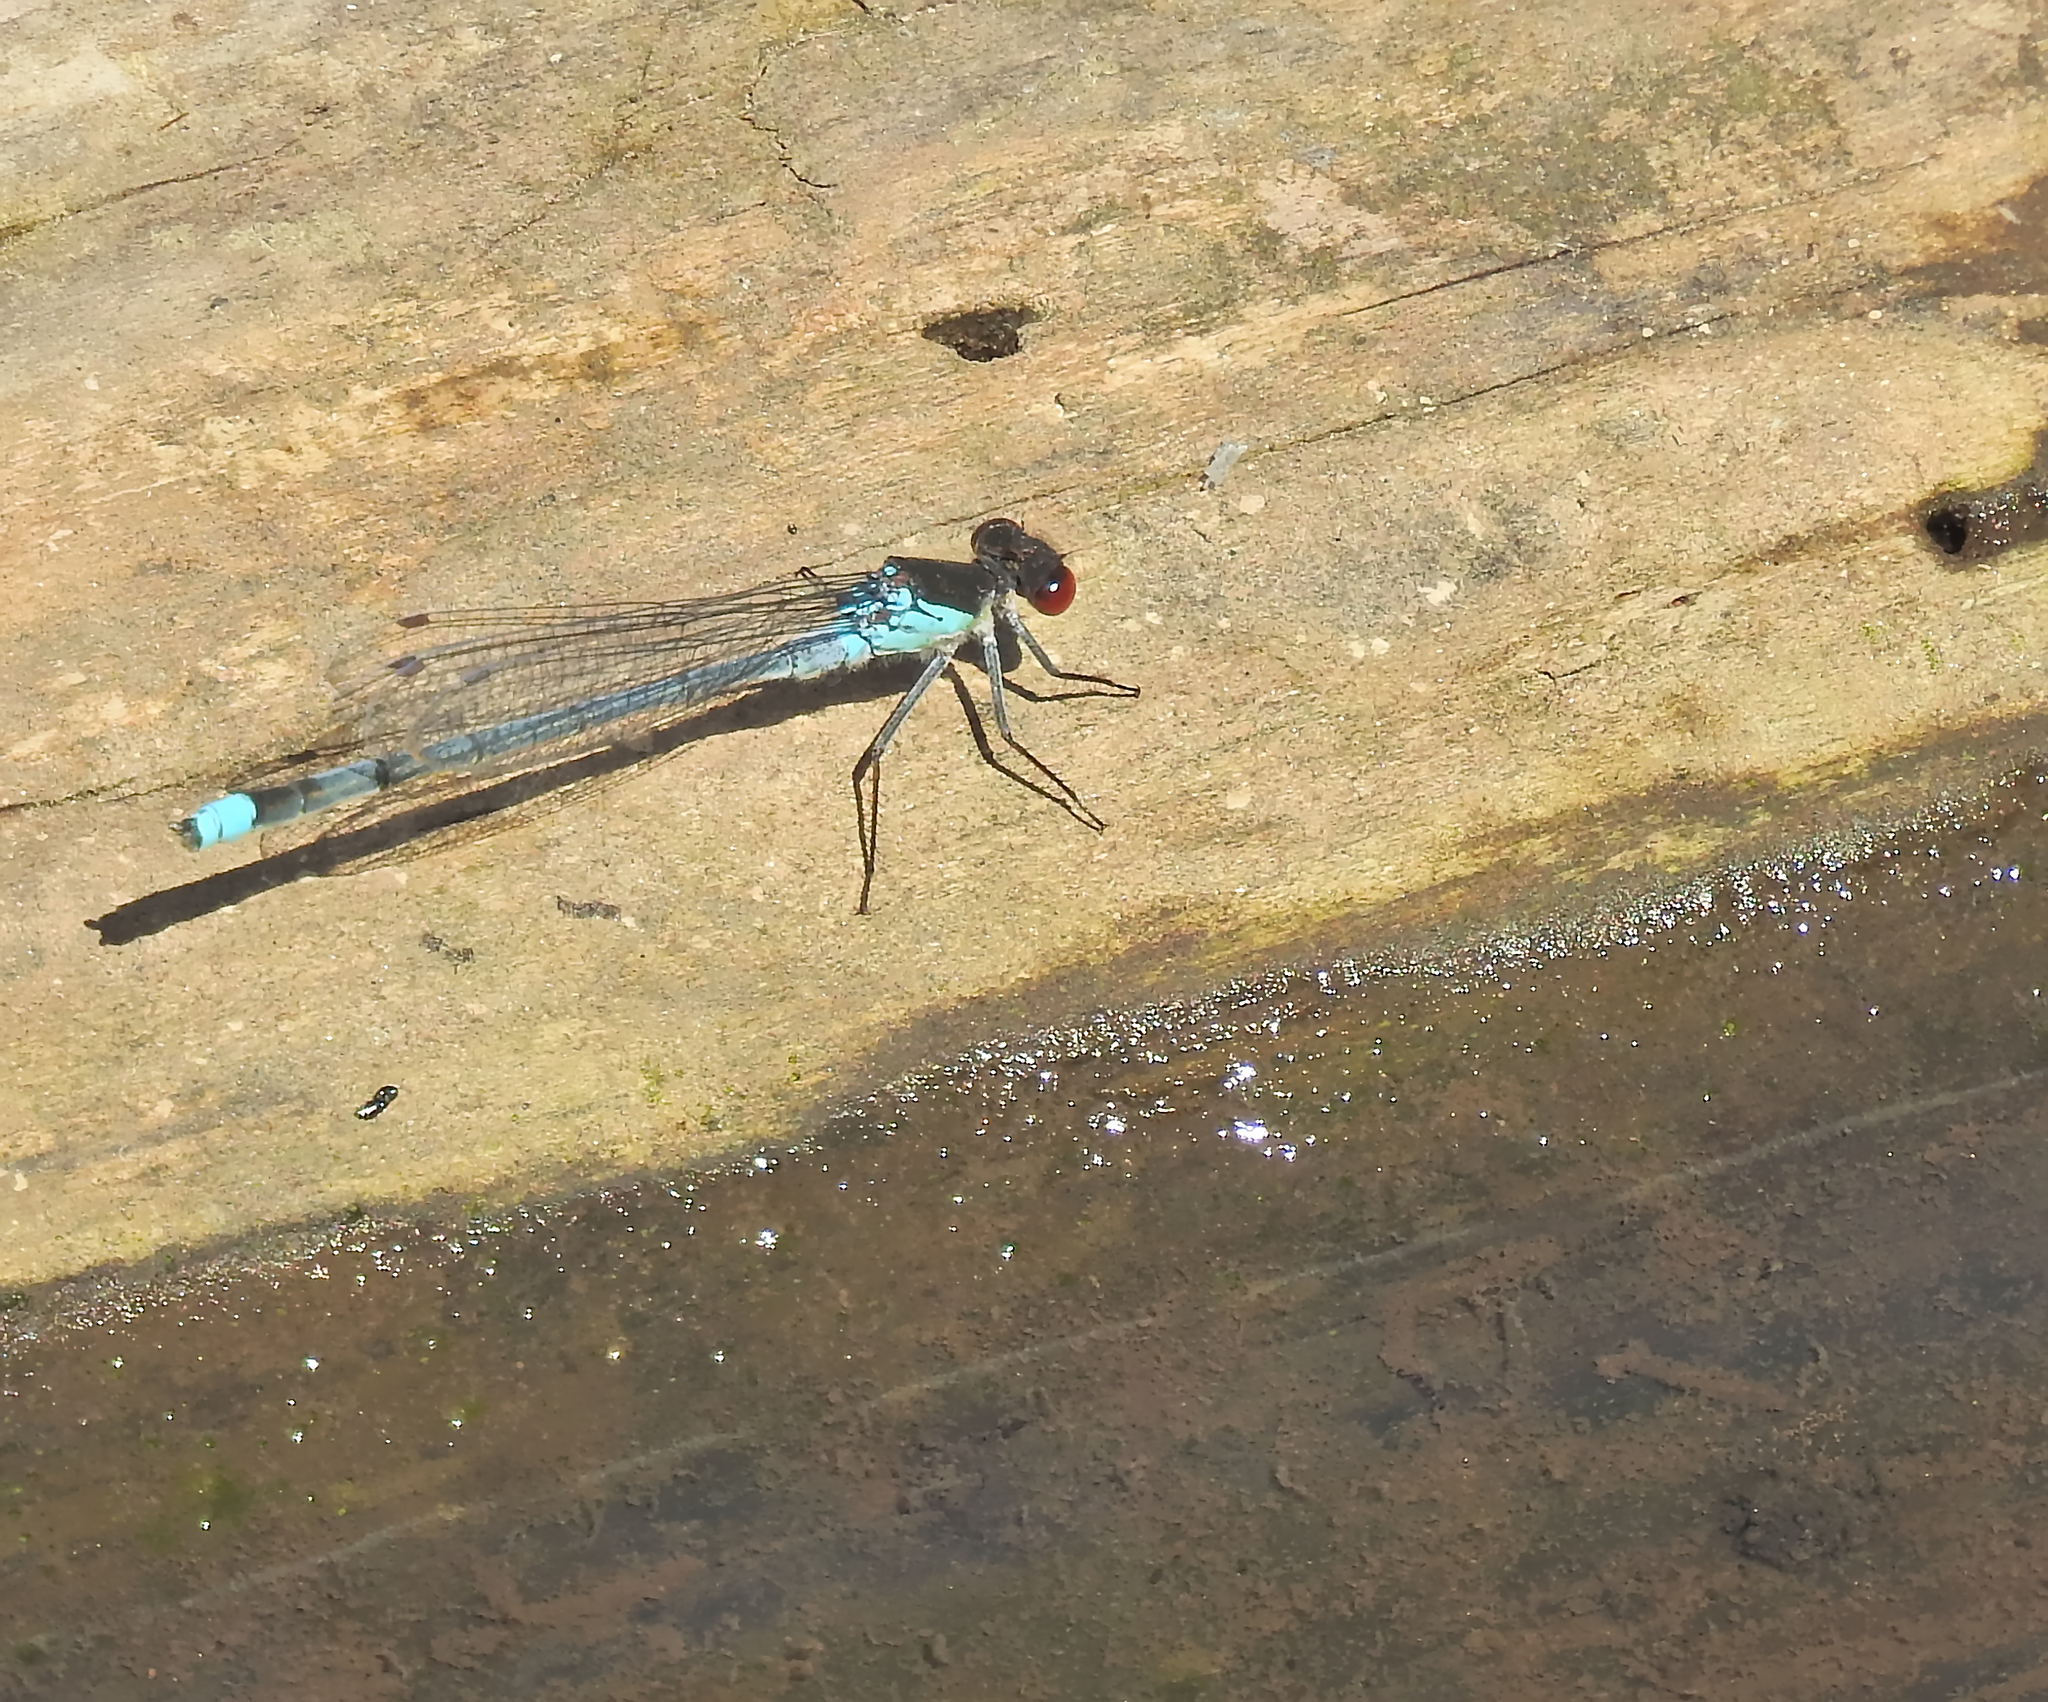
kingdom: Animalia
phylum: Arthropoda
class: Insecta
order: Odonata
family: Coenagrionidae
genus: Erythromma
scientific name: Erythromma najas
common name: Red-eyed damselfly
